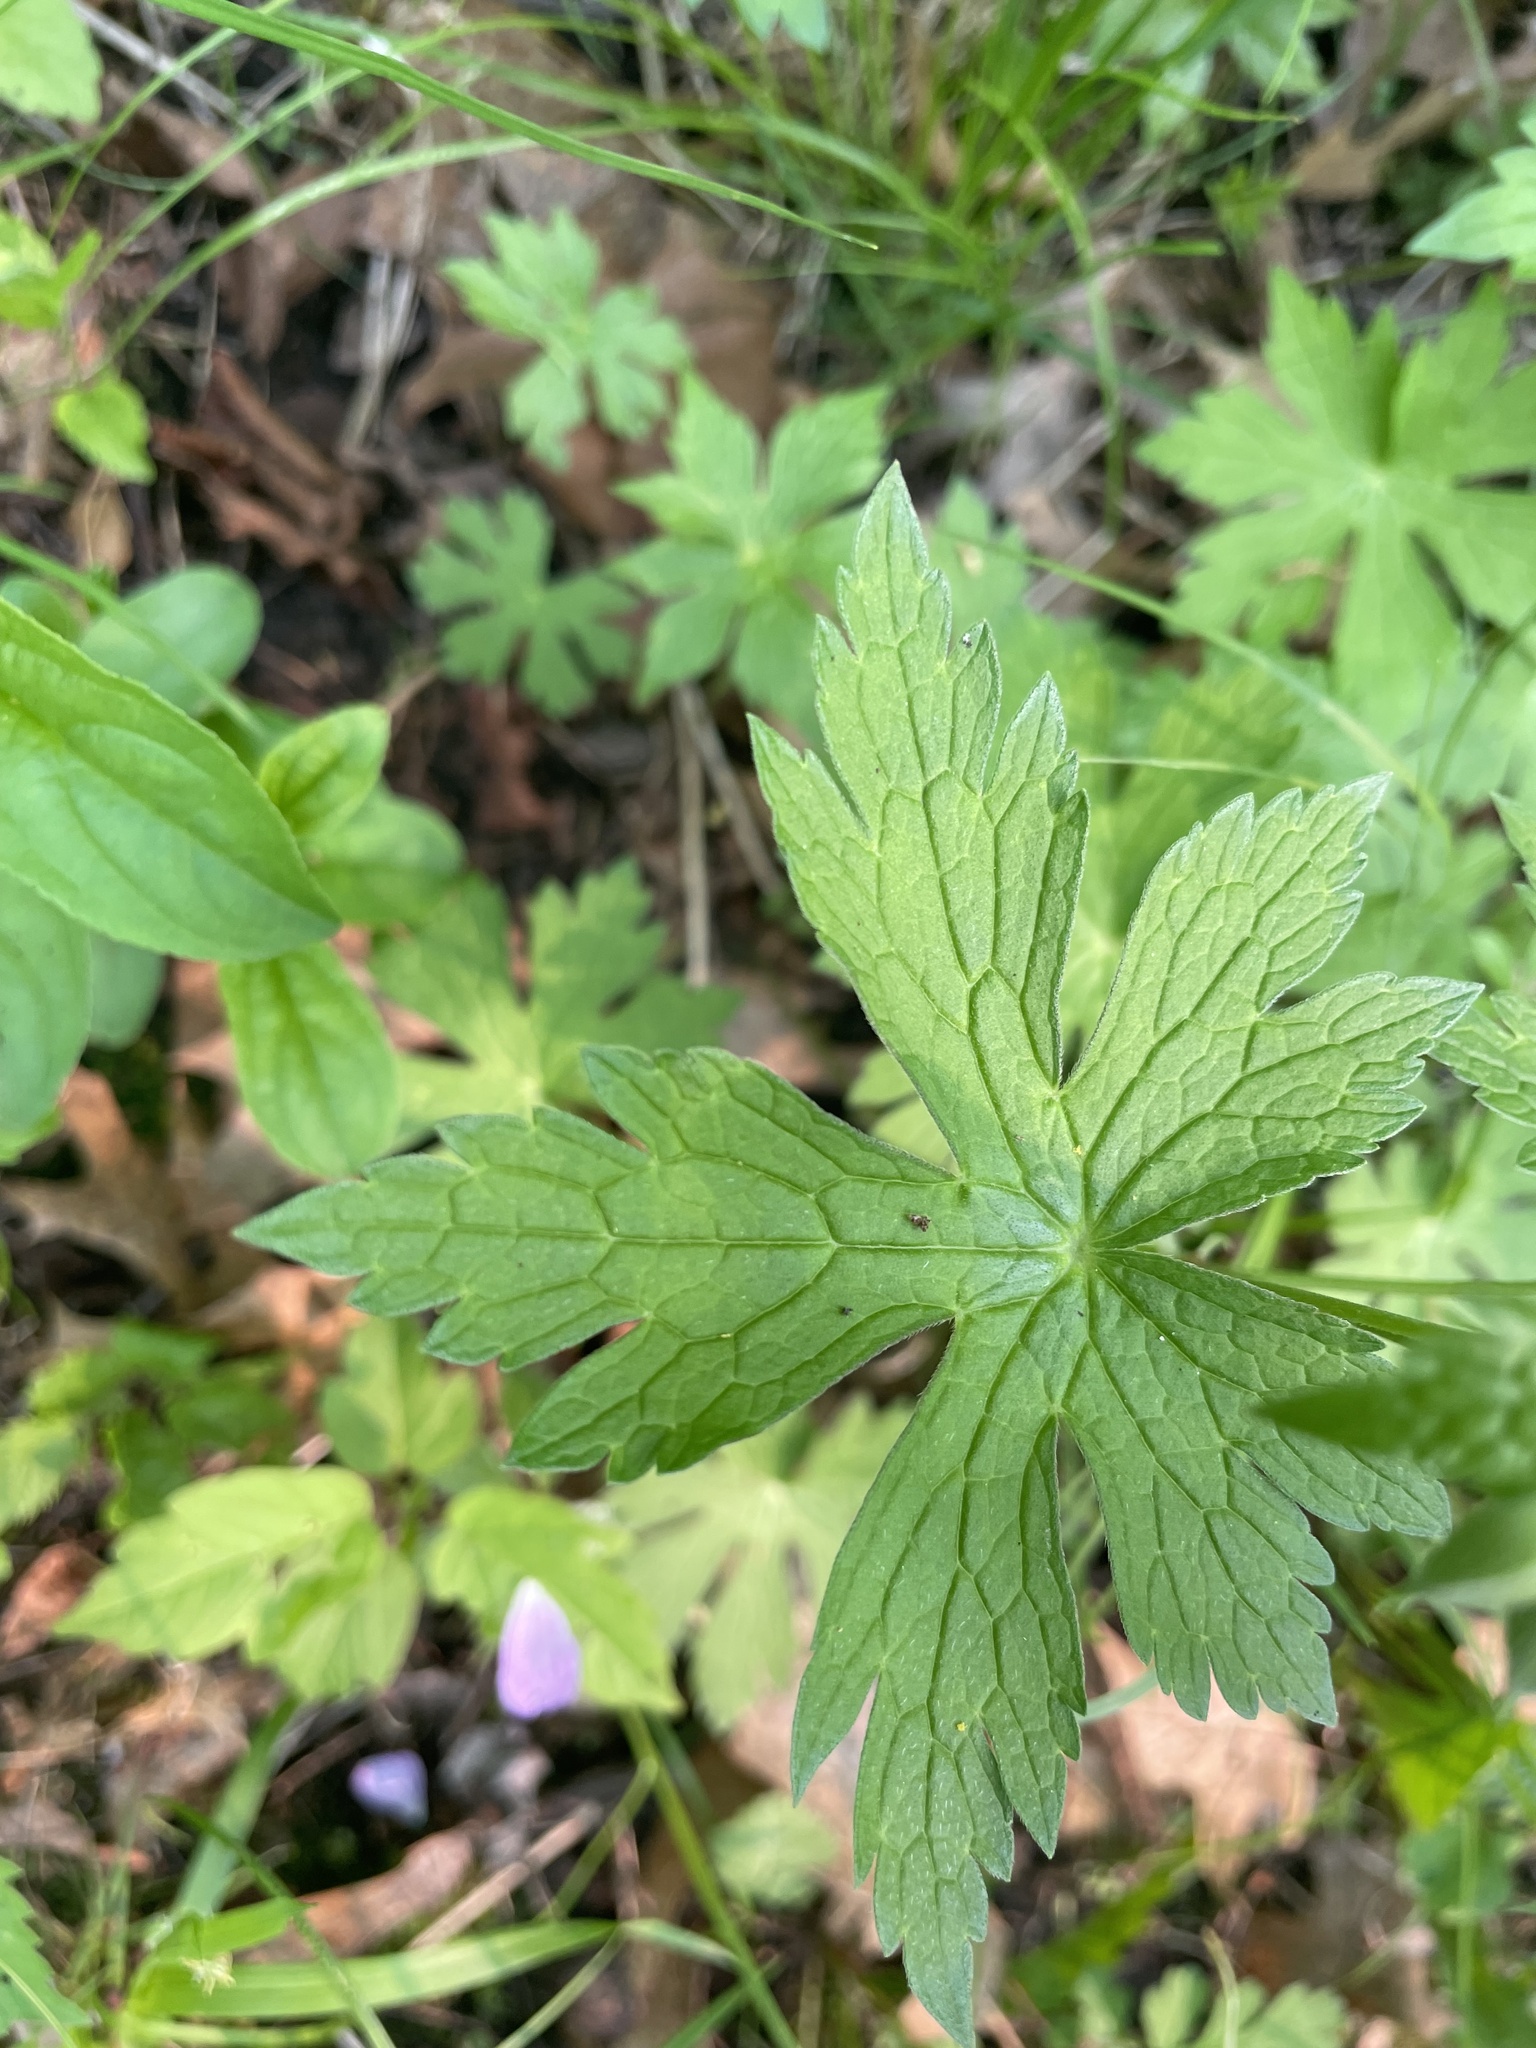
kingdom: Plantae
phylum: Tracheophyta
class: Magnoliopsida
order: Geraniales
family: Geraniaceae
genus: Geranium
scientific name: Geranium maculatum
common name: Spotted geranium
